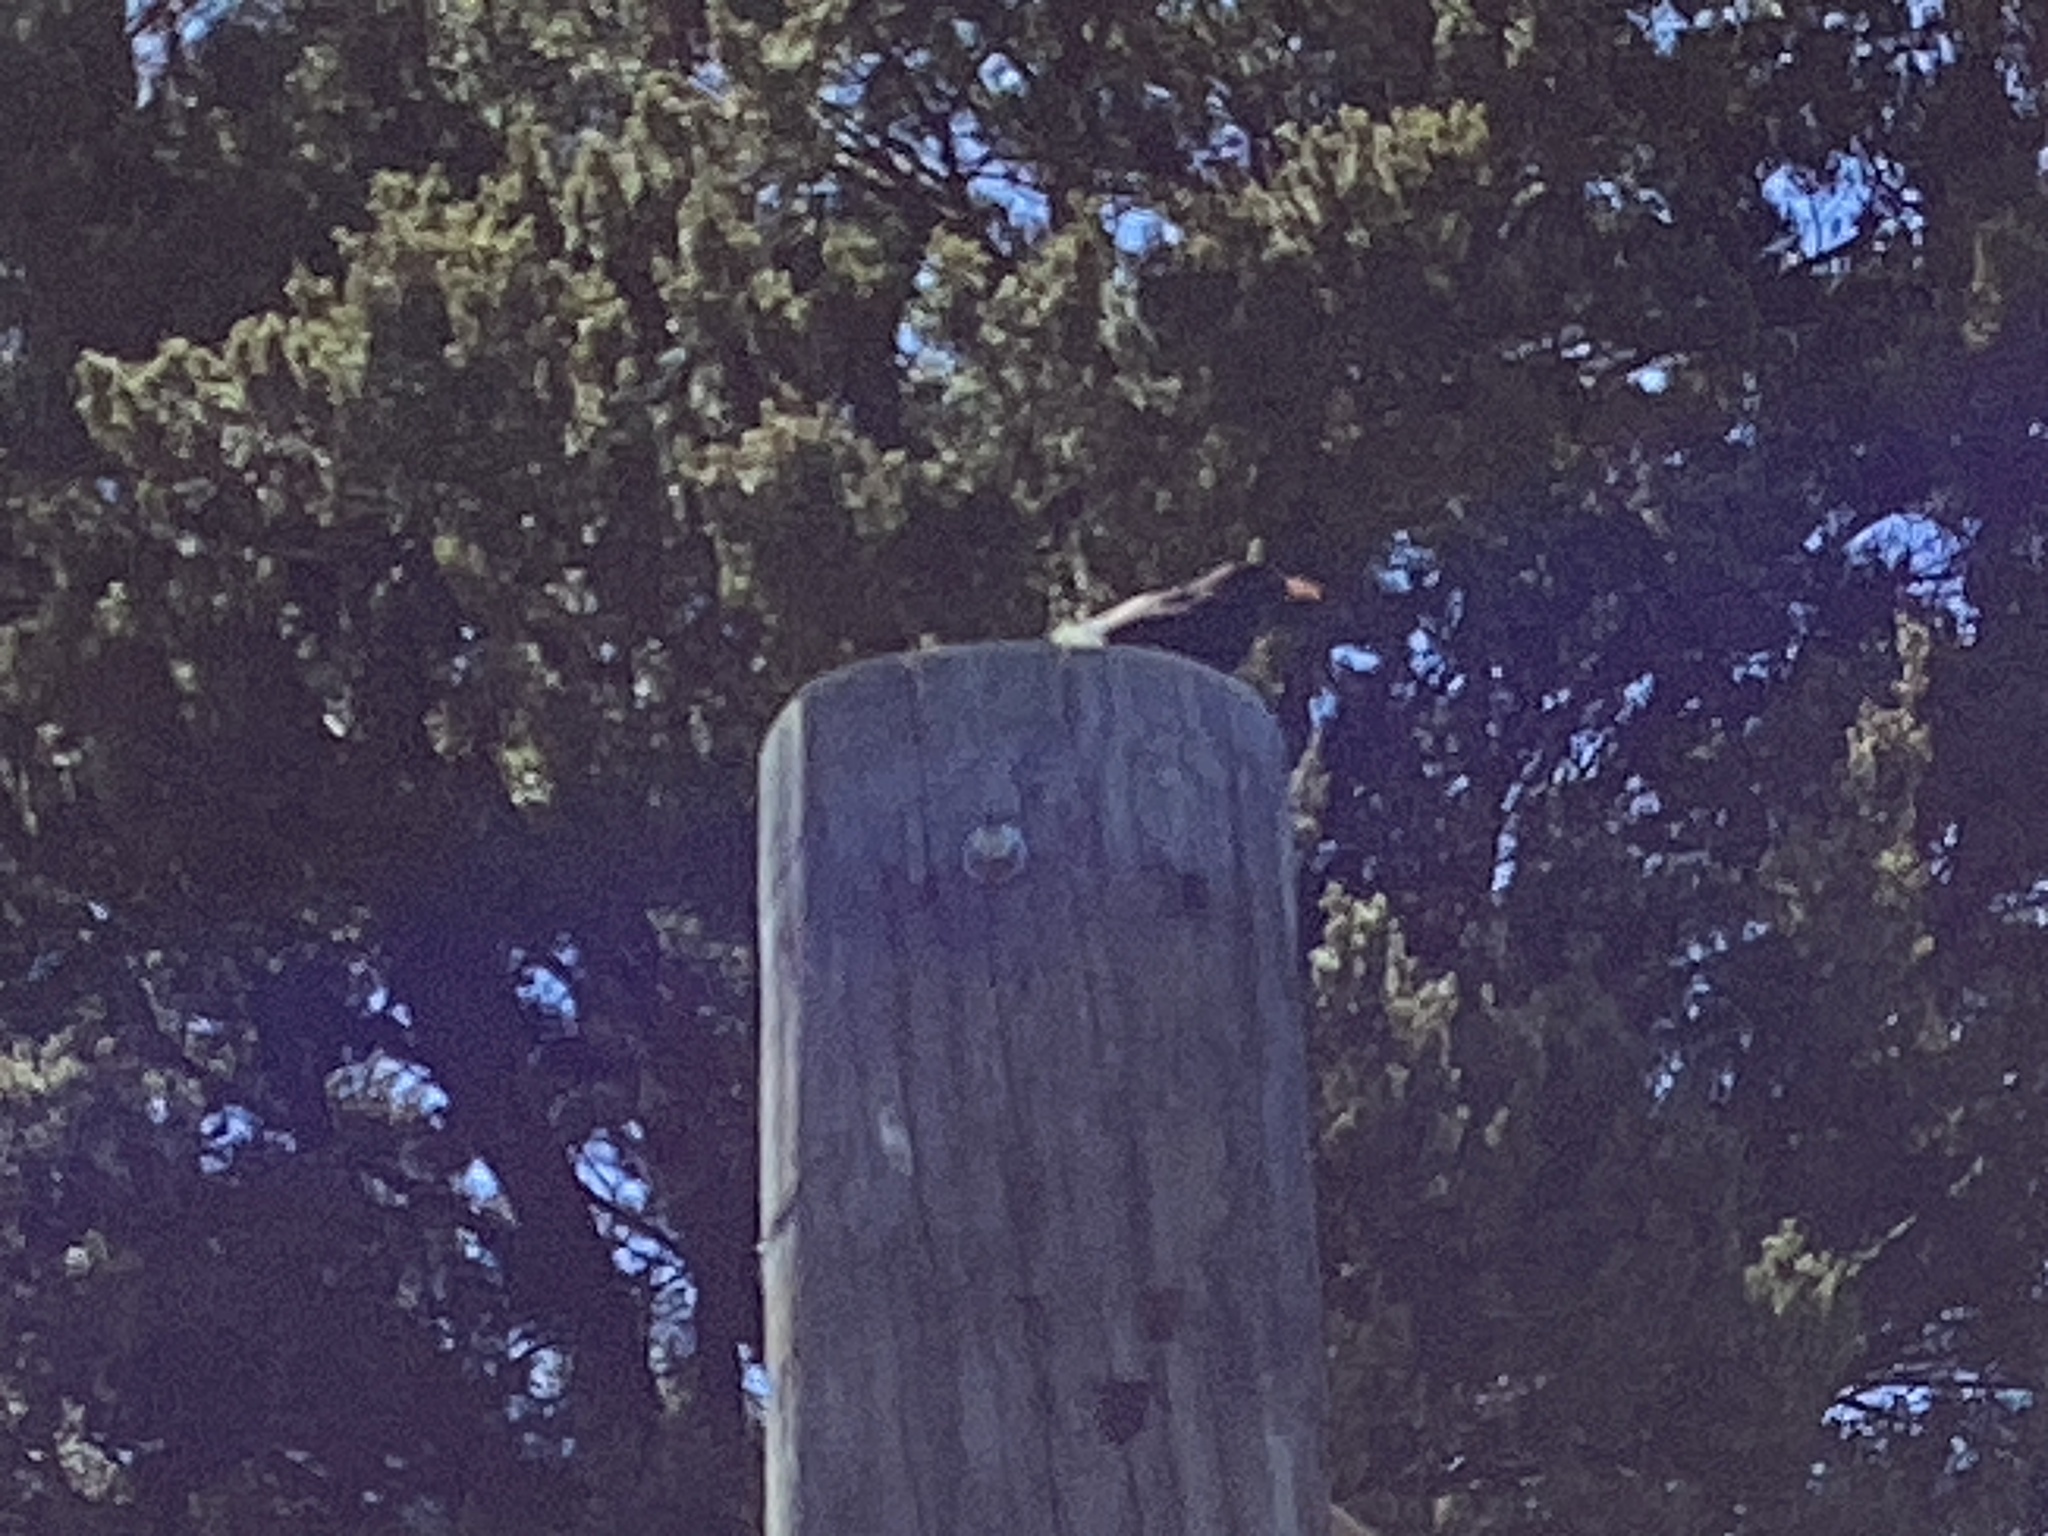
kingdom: Animalia
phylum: Chordata
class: Aves
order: Passeriformes
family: Turdidae
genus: Turdus
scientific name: Turdus merula
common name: Common blackbird
